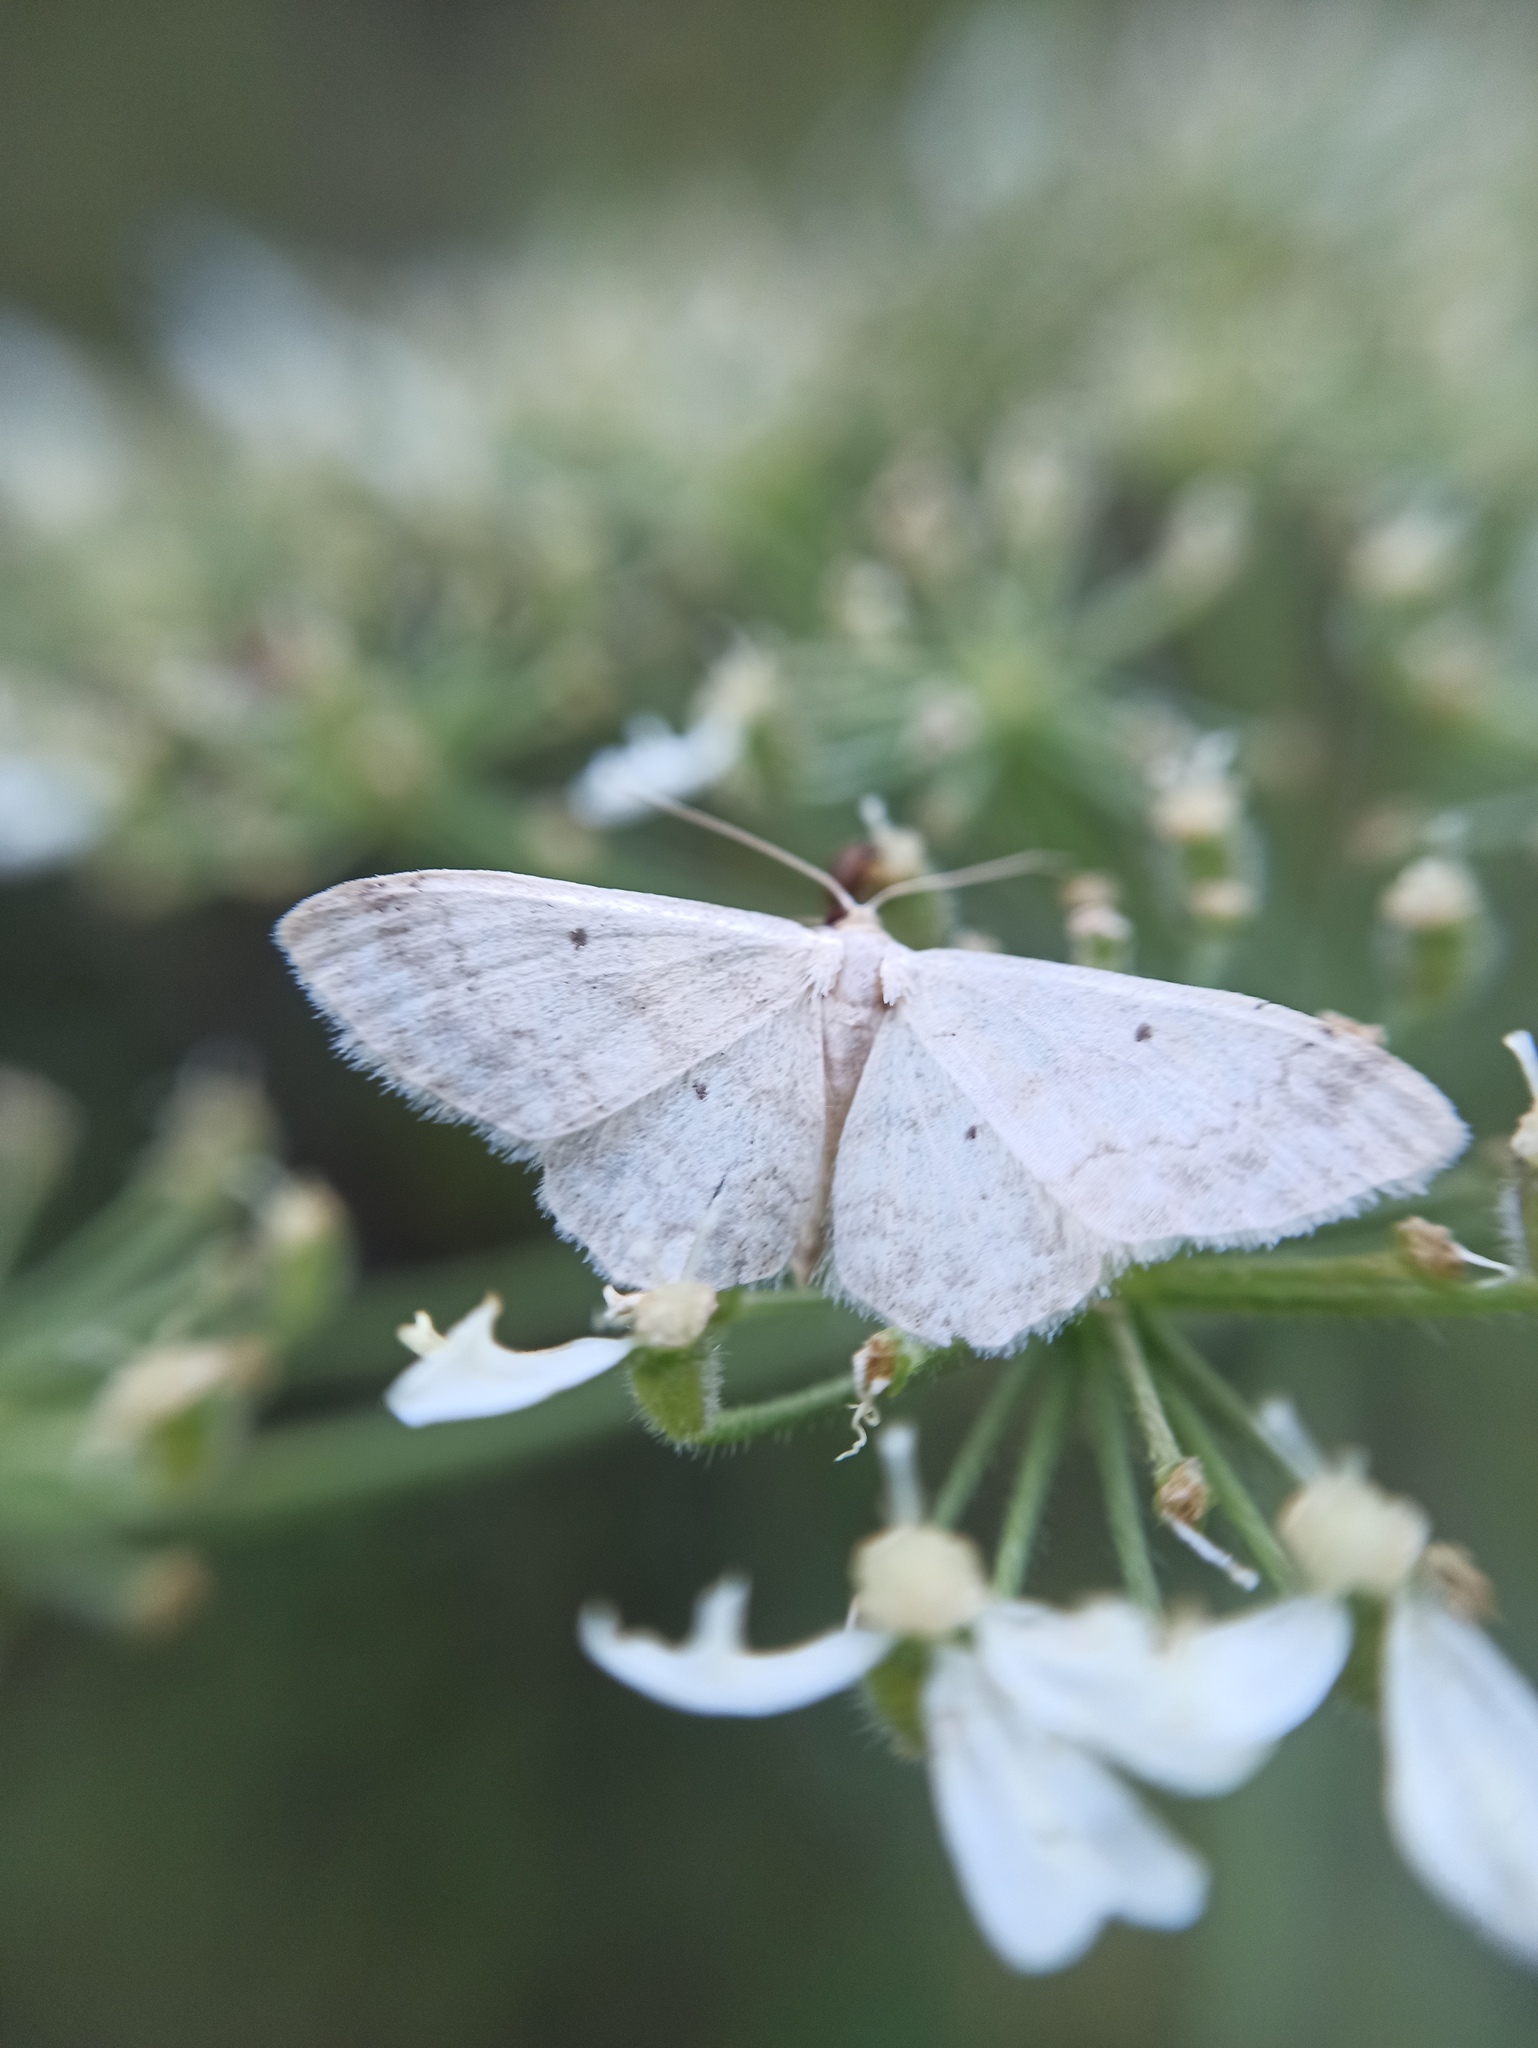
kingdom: Animalia
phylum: Arthropoda
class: Insecta
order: Lepidoptera
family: Geometridae
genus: Idaea
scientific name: Idaea biselata
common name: Small fan-footed wave
